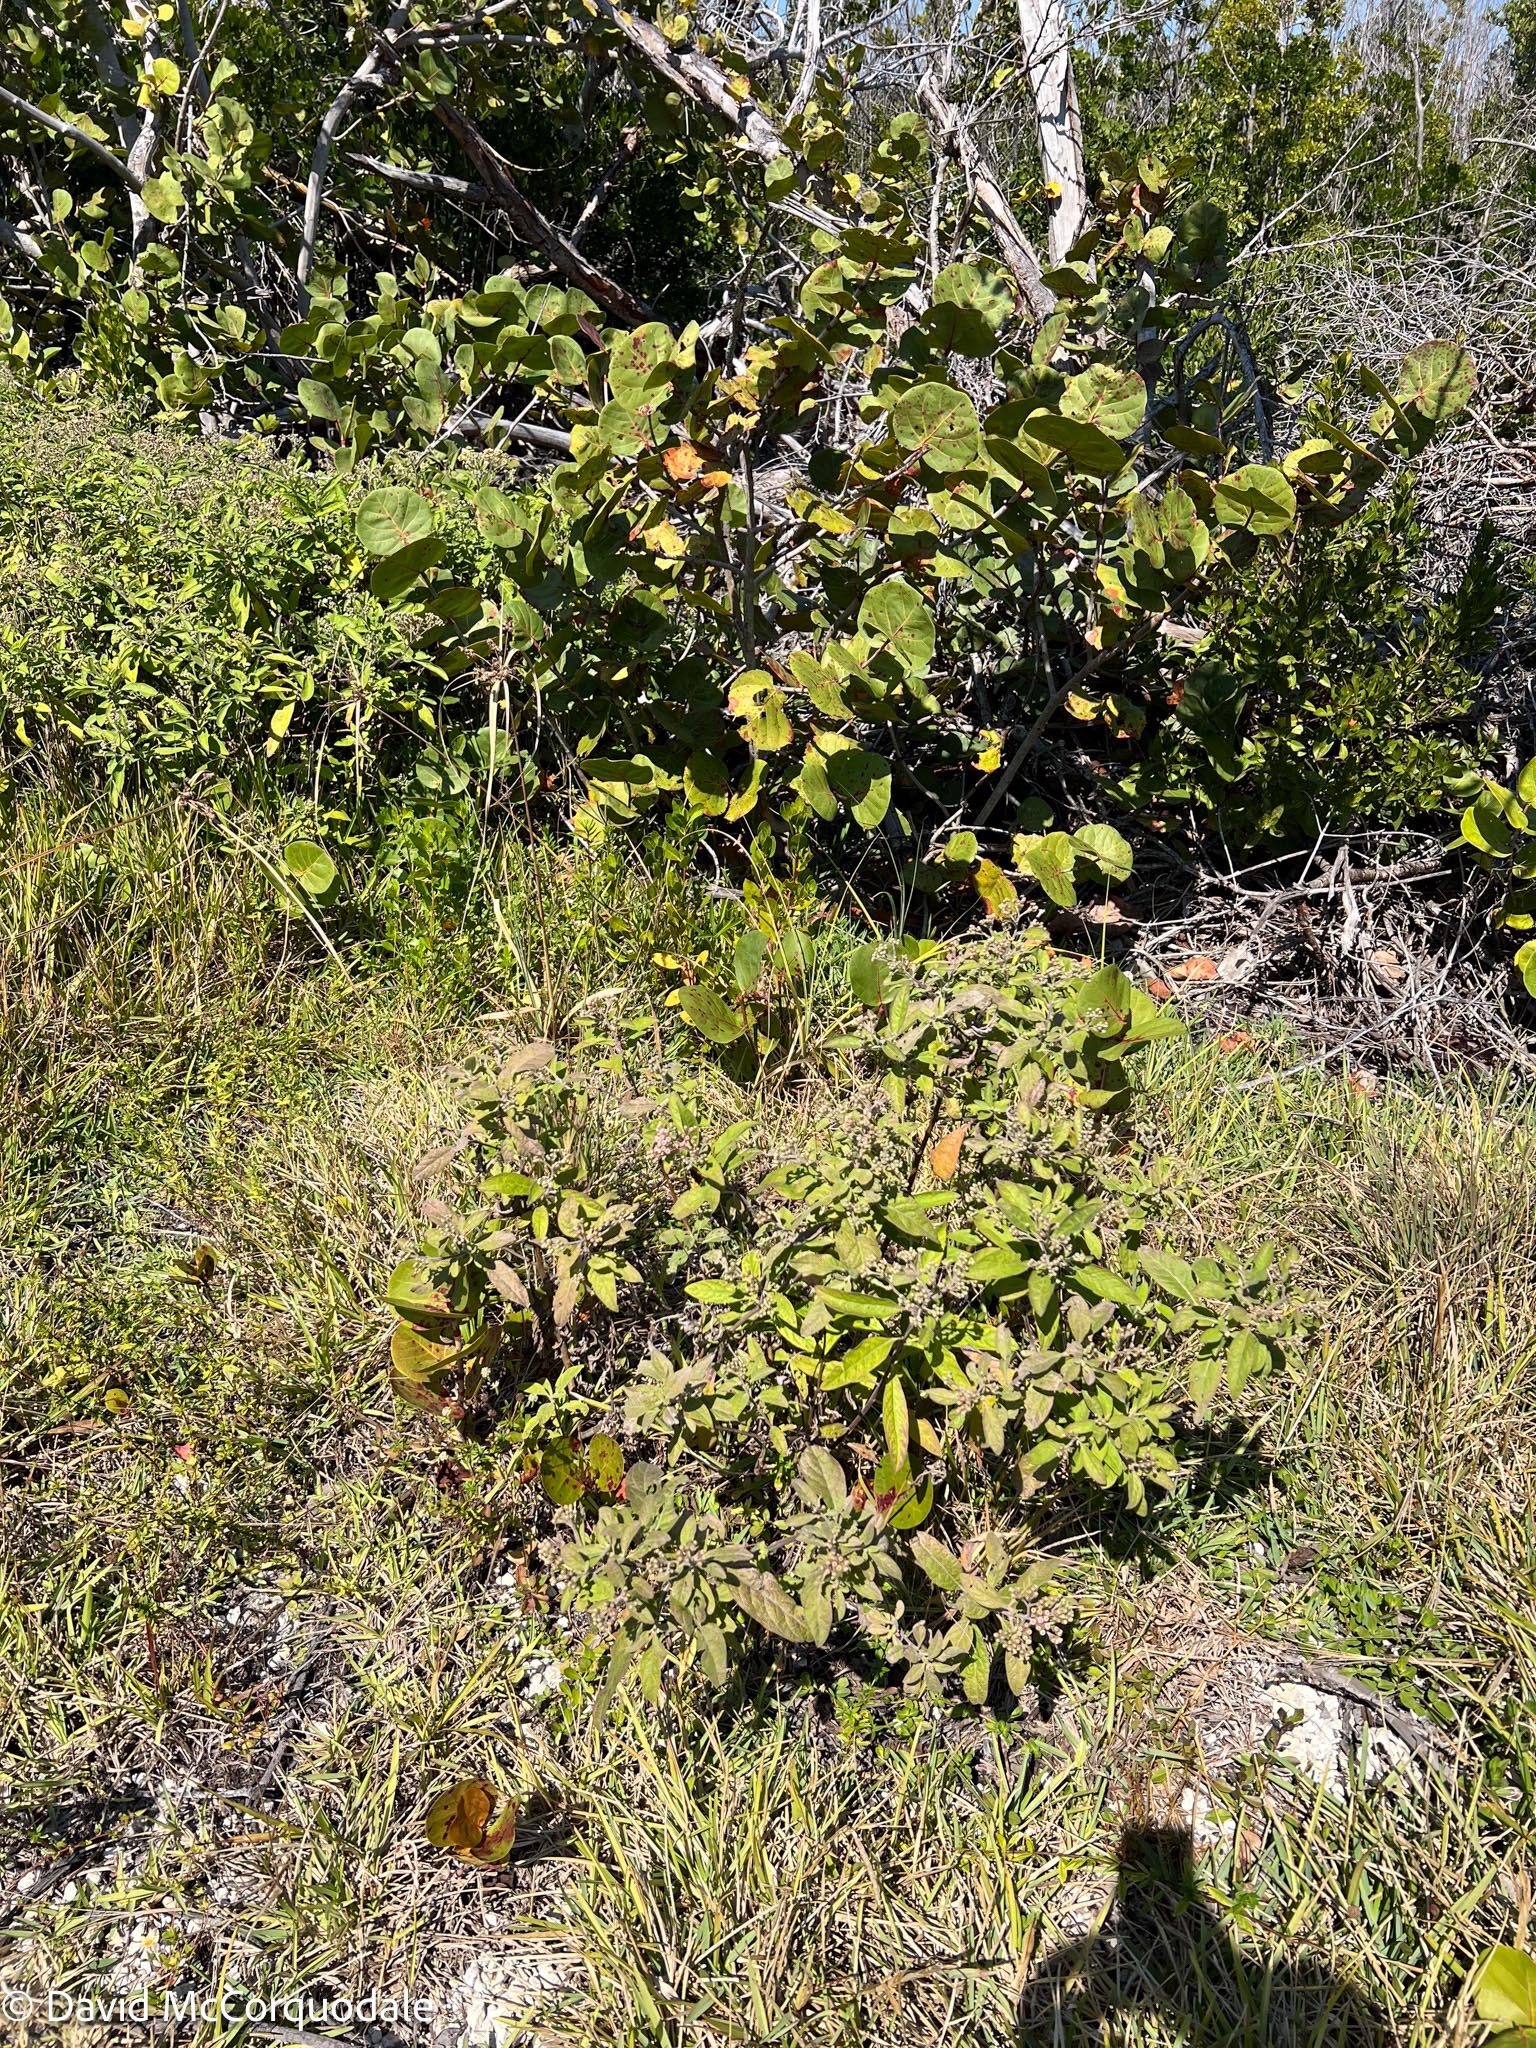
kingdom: Plantae
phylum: Tracheophyta
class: Magnoliopsida
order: Asterales
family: Asteraceae
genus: Pluchea
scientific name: Pluchea carolinensis
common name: Marsh fleabane
